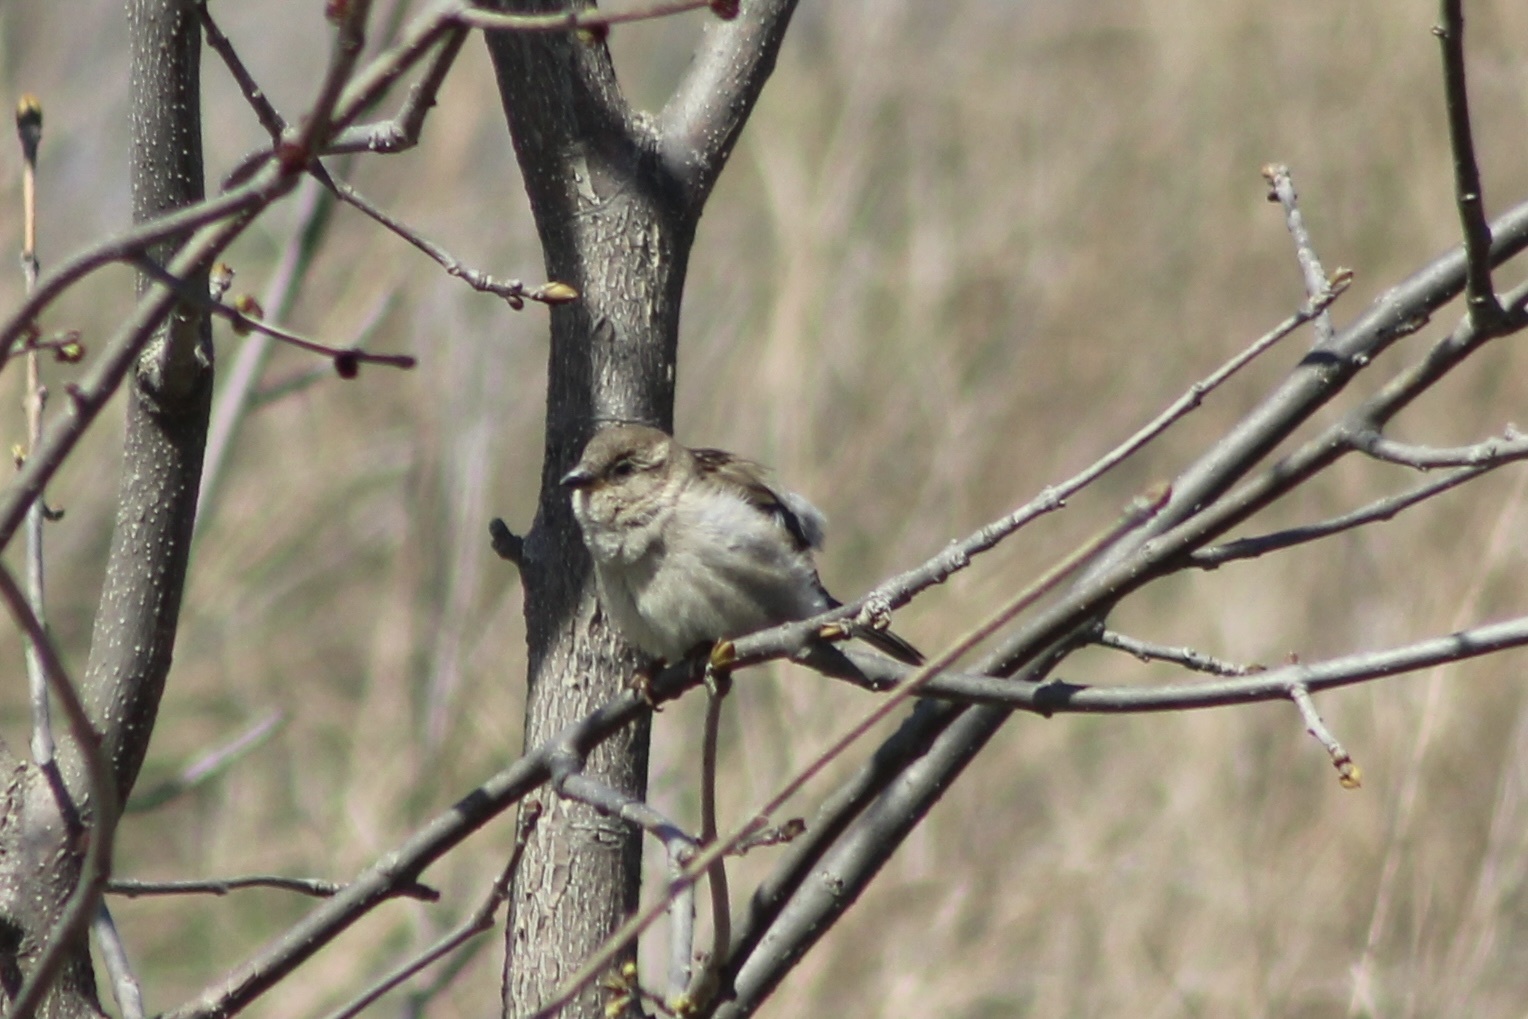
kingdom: Animalia
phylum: Chordata
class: Aves
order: Passeriformes
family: Passeridae
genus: Passer
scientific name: Passer domesticus
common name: House sparrow
